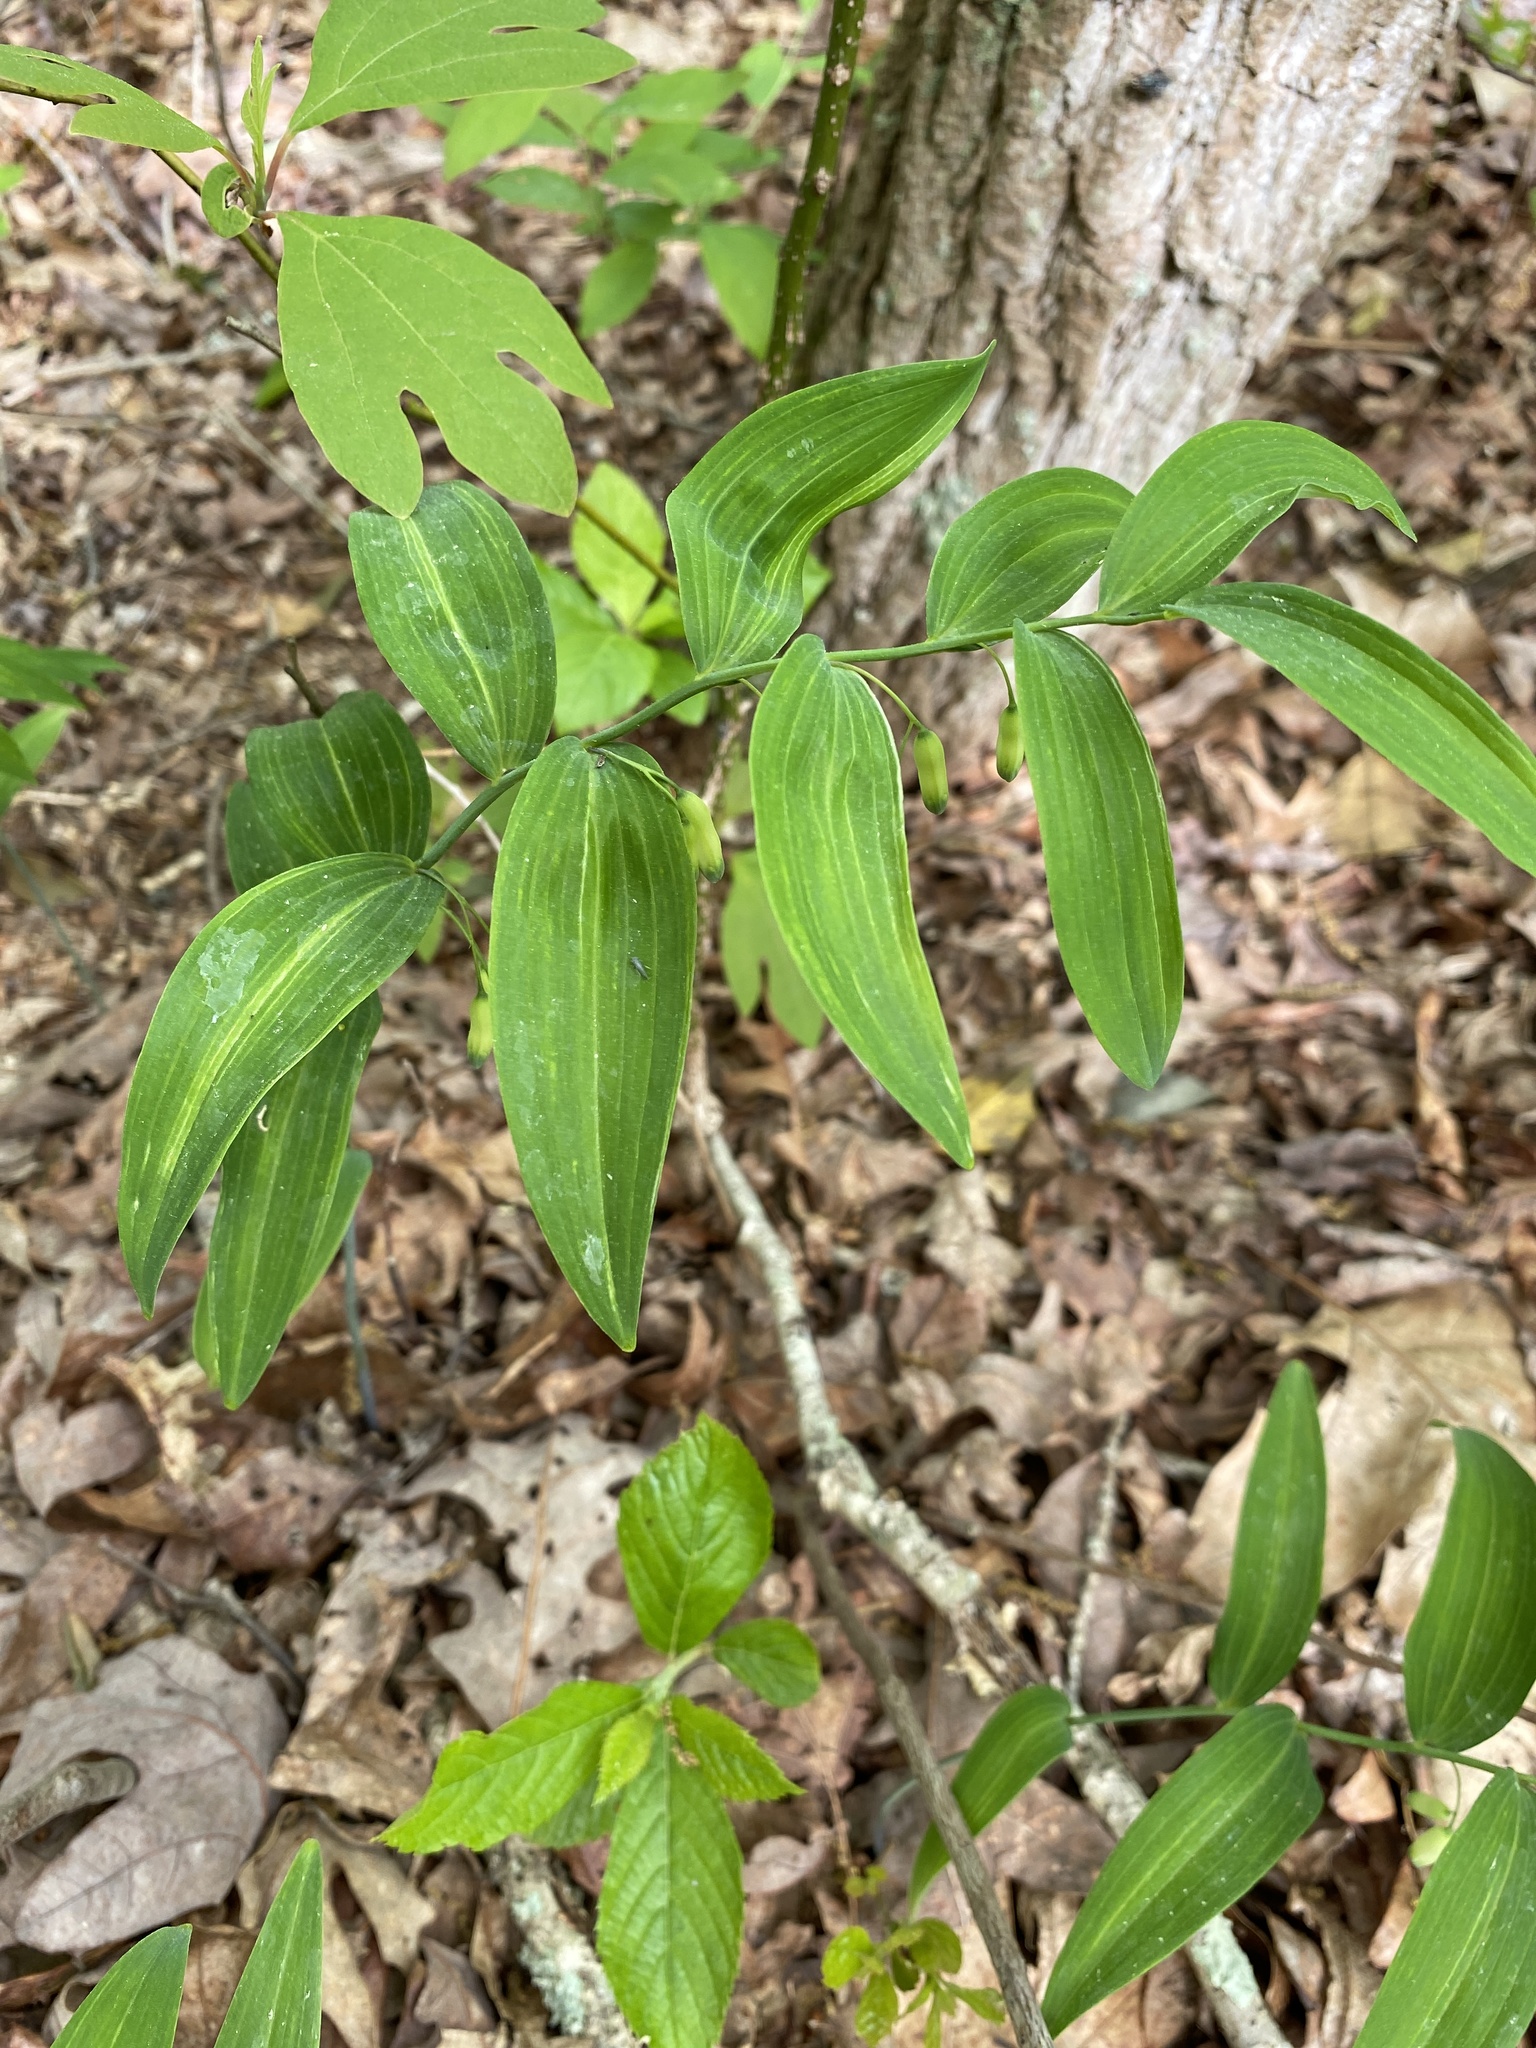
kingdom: Plantae
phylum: Tracheophyta
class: Liliopsida
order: Asparagales
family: Asparagaceae
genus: Polygonatum
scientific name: Polygonatum biflorum
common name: American solomon's-seal
